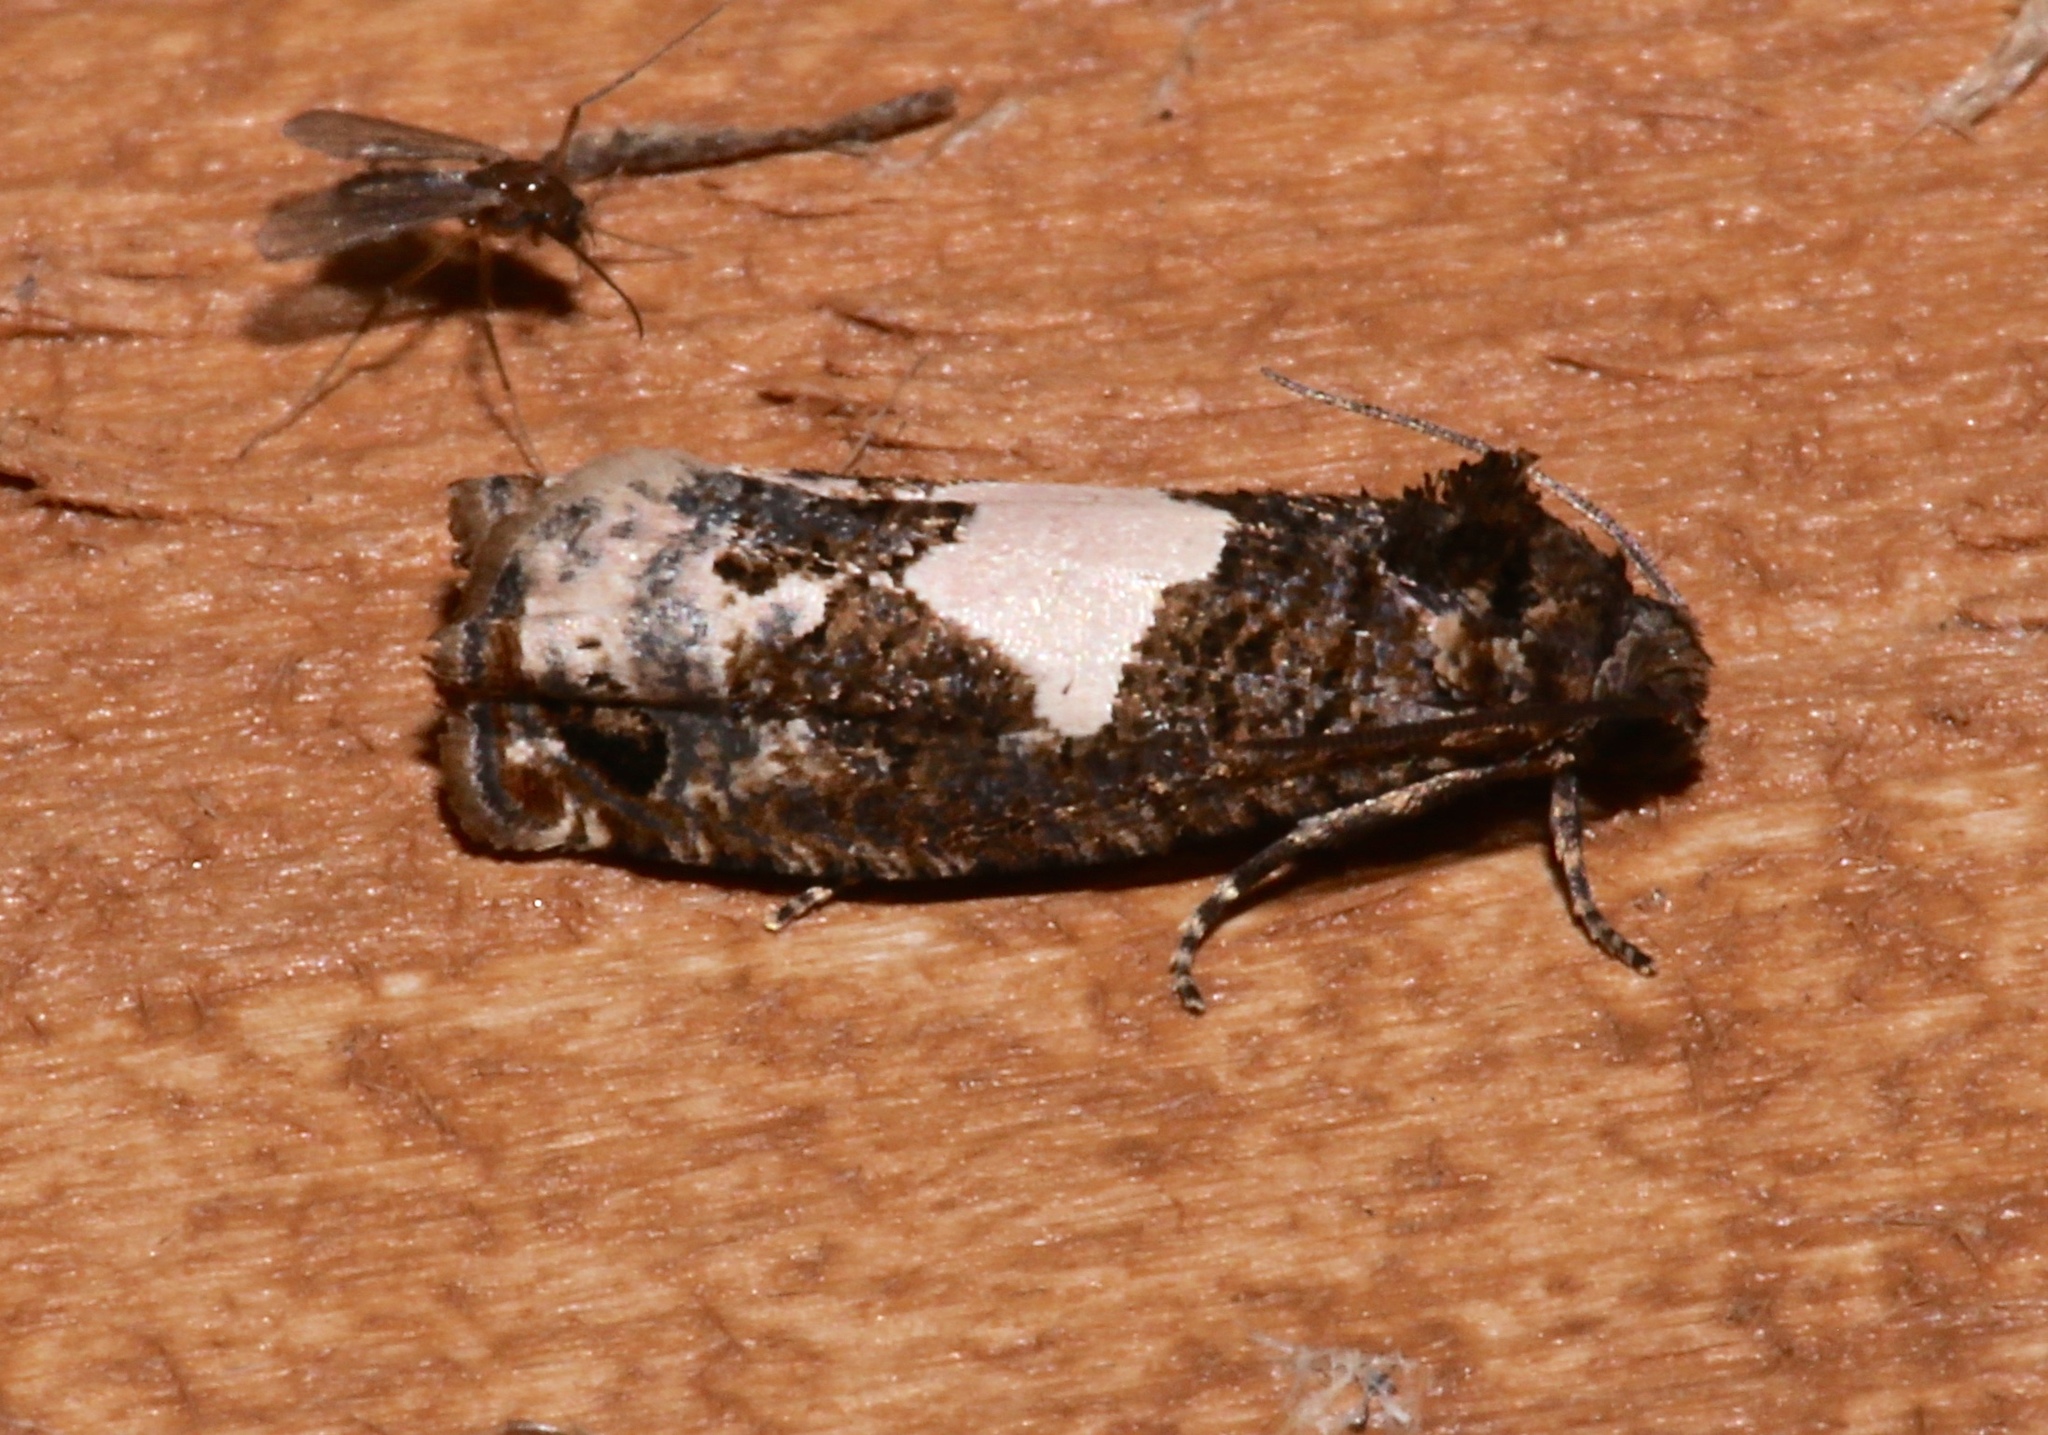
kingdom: Animalia
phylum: Arthropoda
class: Insecta
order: Lepidoptera
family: Tortricidae
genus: Epiblema
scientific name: Epiblema otiosana
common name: Bidens borer moth
